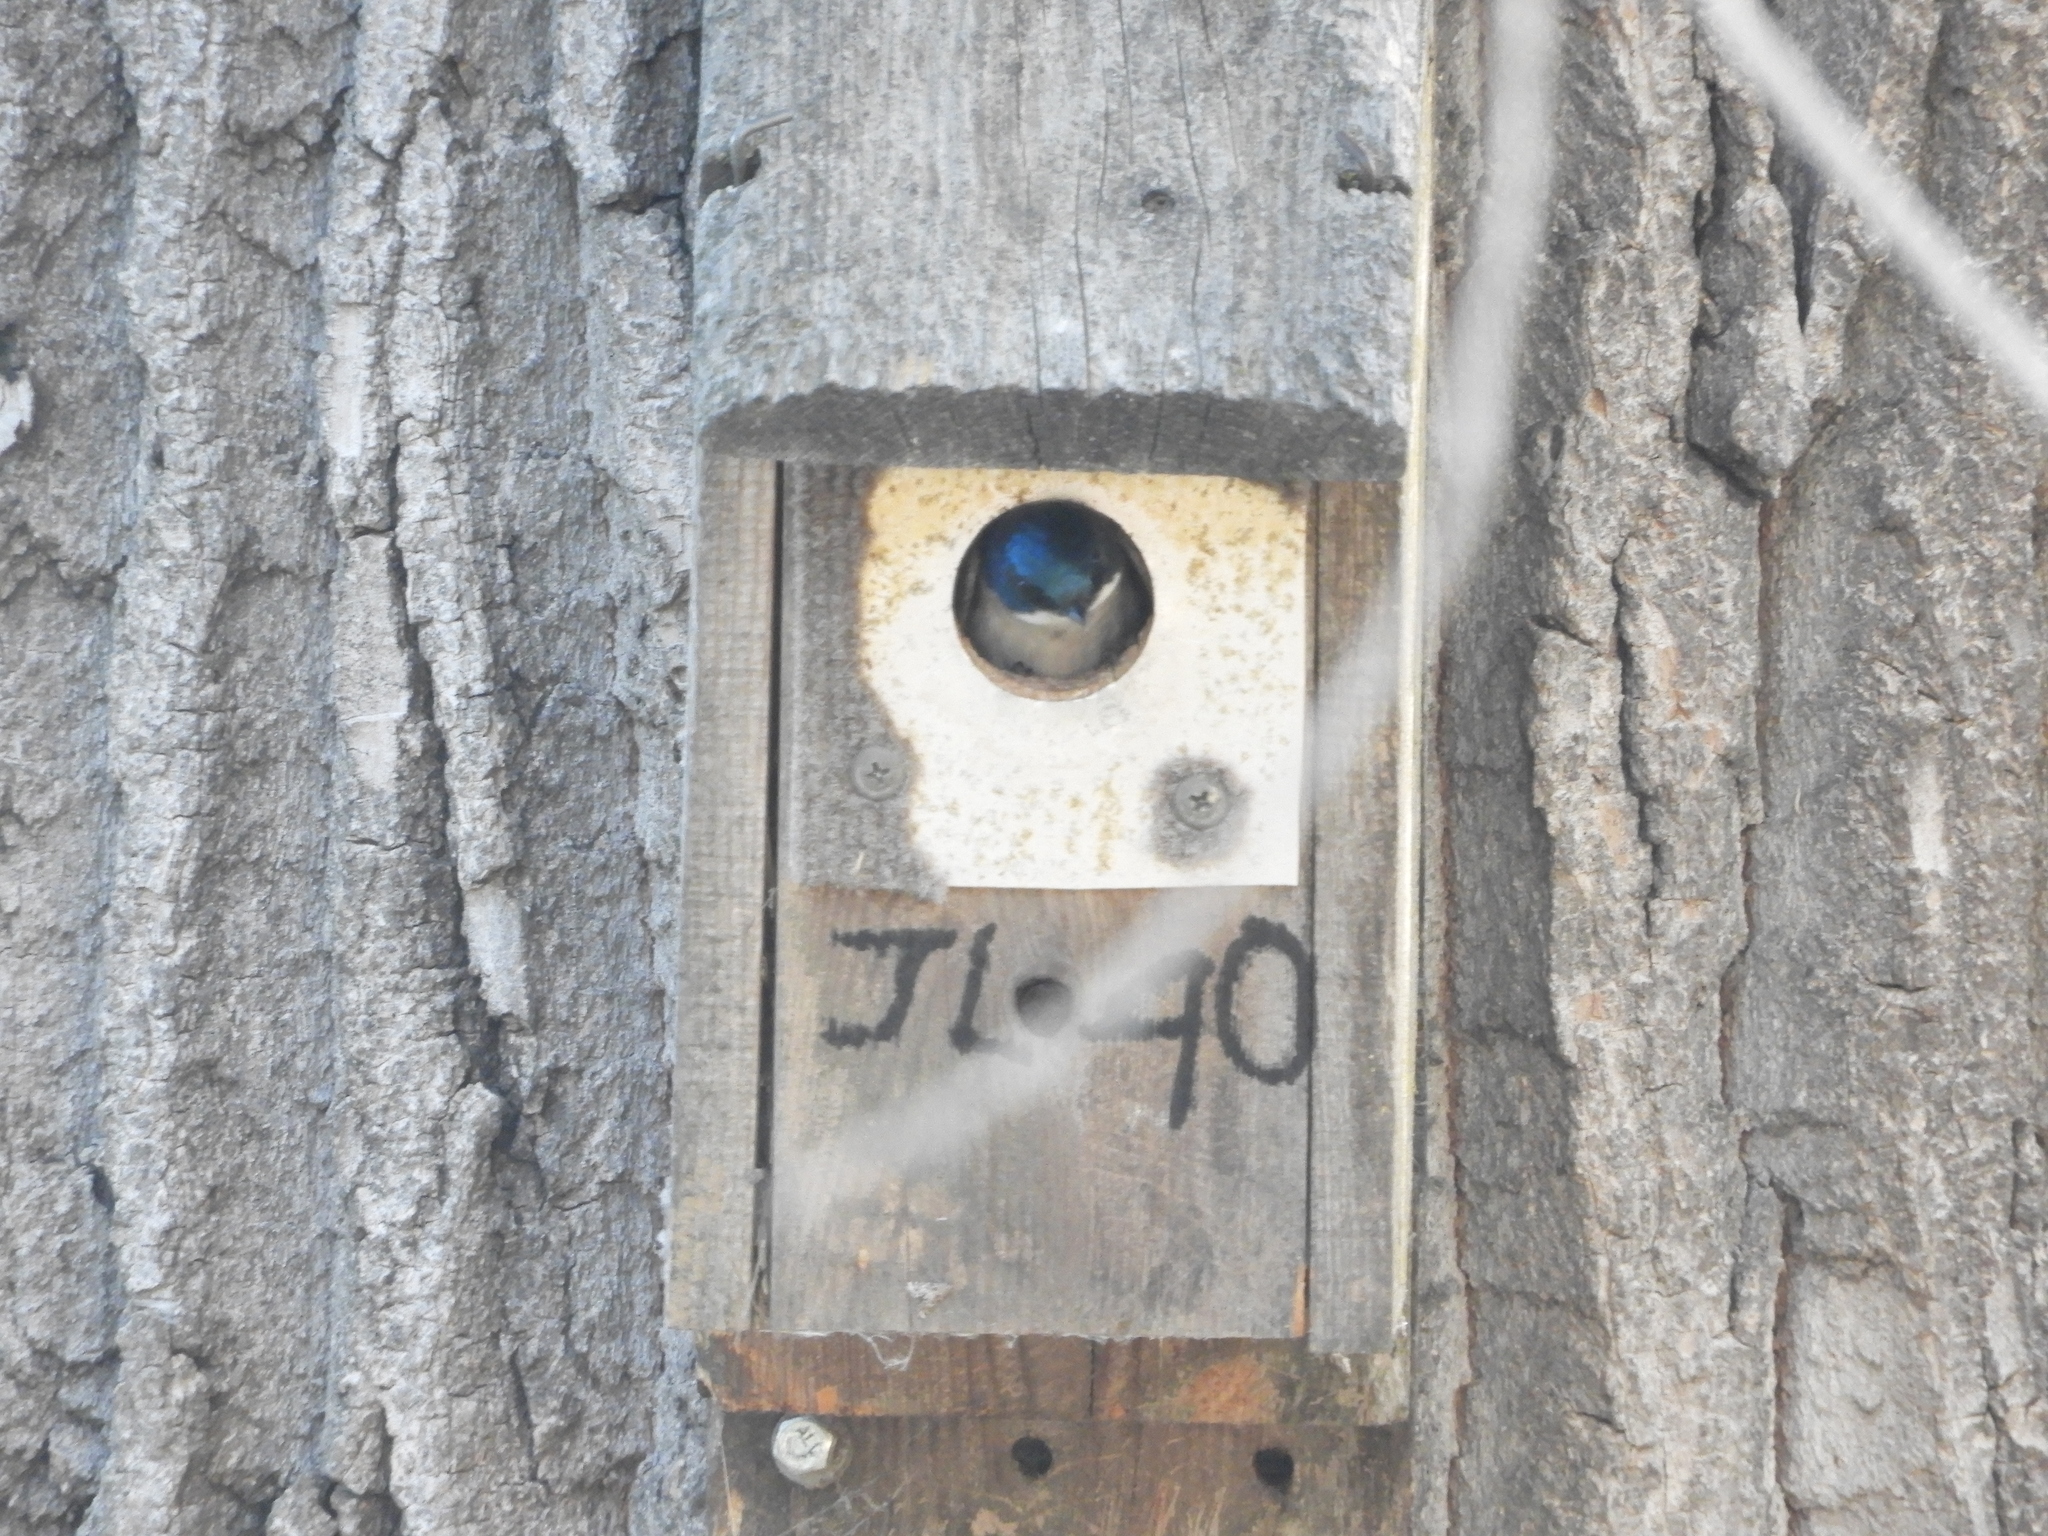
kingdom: Animalia
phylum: Chordata
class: Aves
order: Passeriformes
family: Hirundinidae
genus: Tachycineta
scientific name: Tachycineta bicolor
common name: Tree swallow
